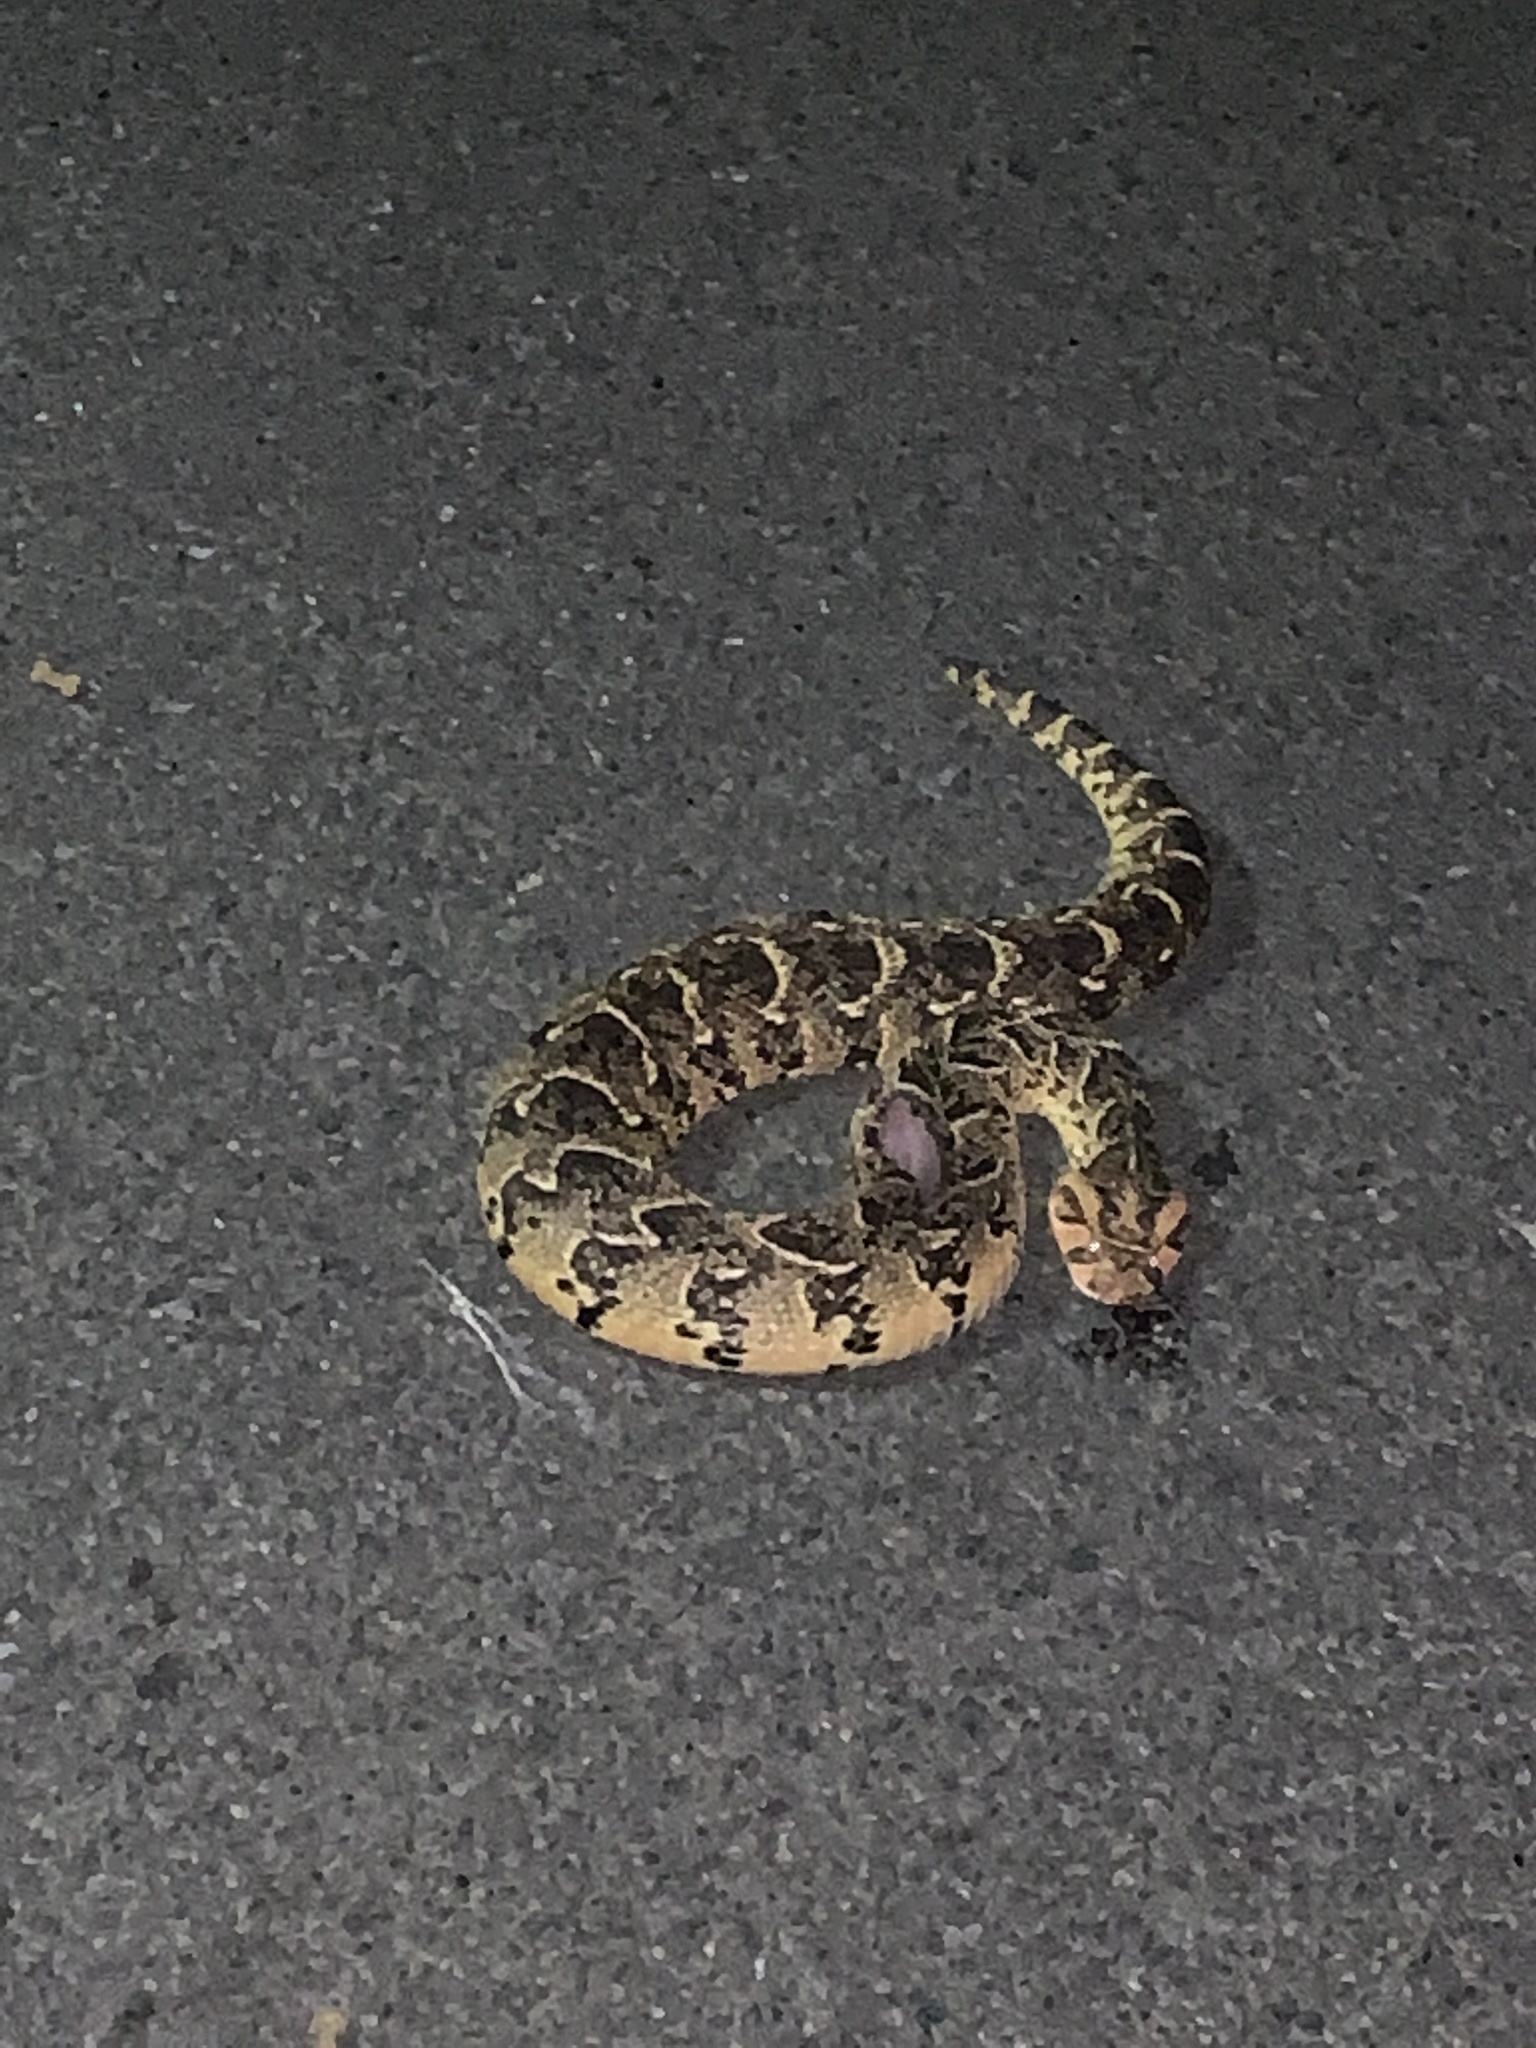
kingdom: Animalia
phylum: Chordata
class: Squamata
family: Viperidae
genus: Bitis
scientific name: Bitis arietans
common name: Puff adder
